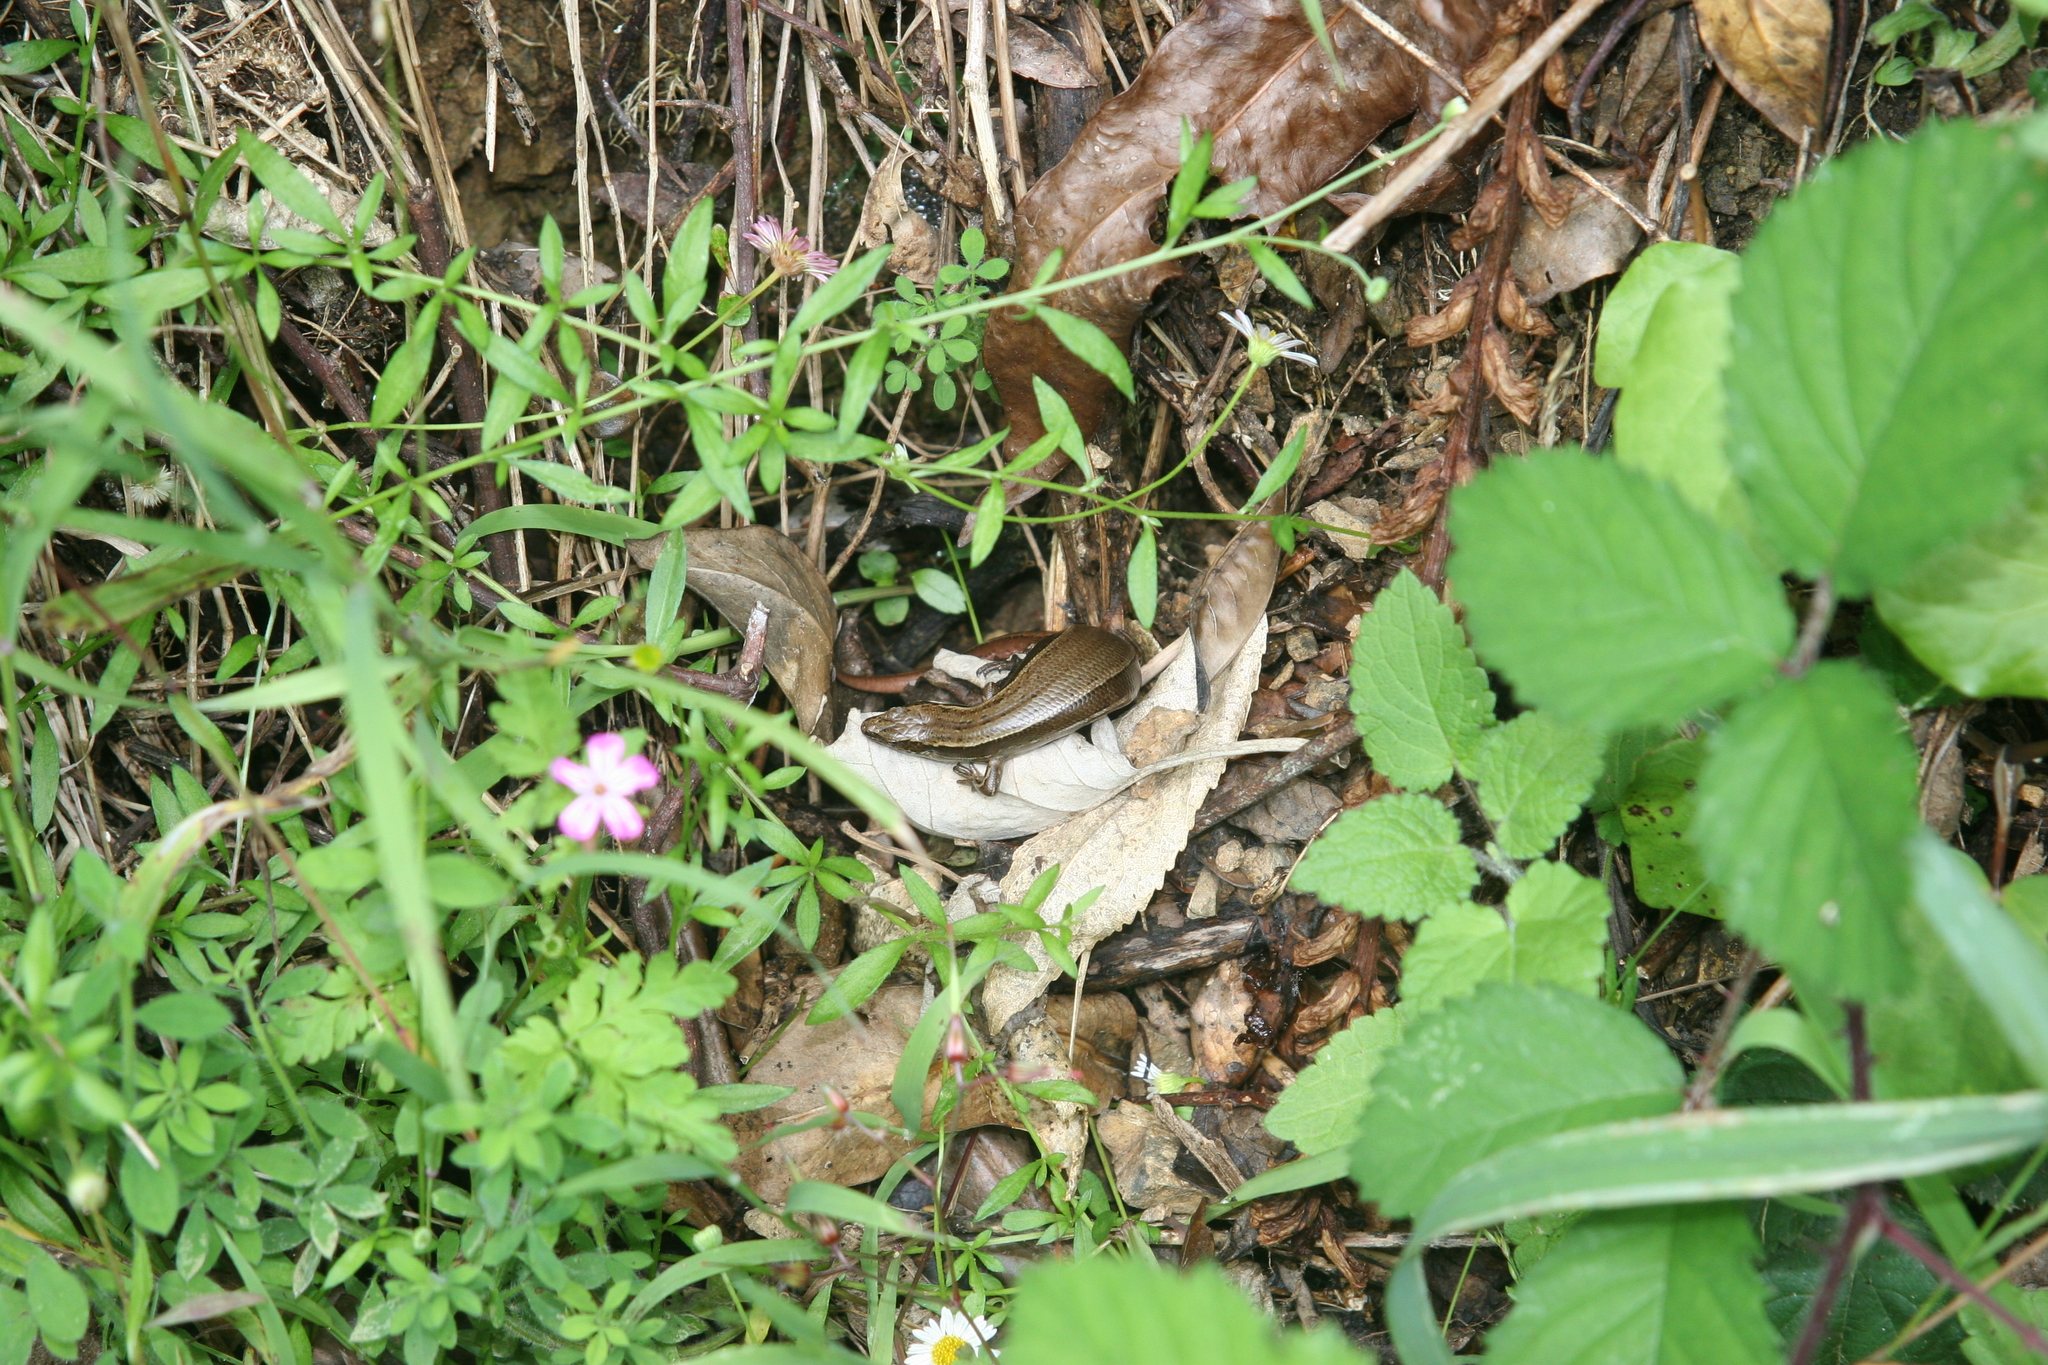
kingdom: Animalia
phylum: Chordata
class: Squamata
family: Scincidae
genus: Oligosoma
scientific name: Oligosoma zelandicum
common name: Brown skink
